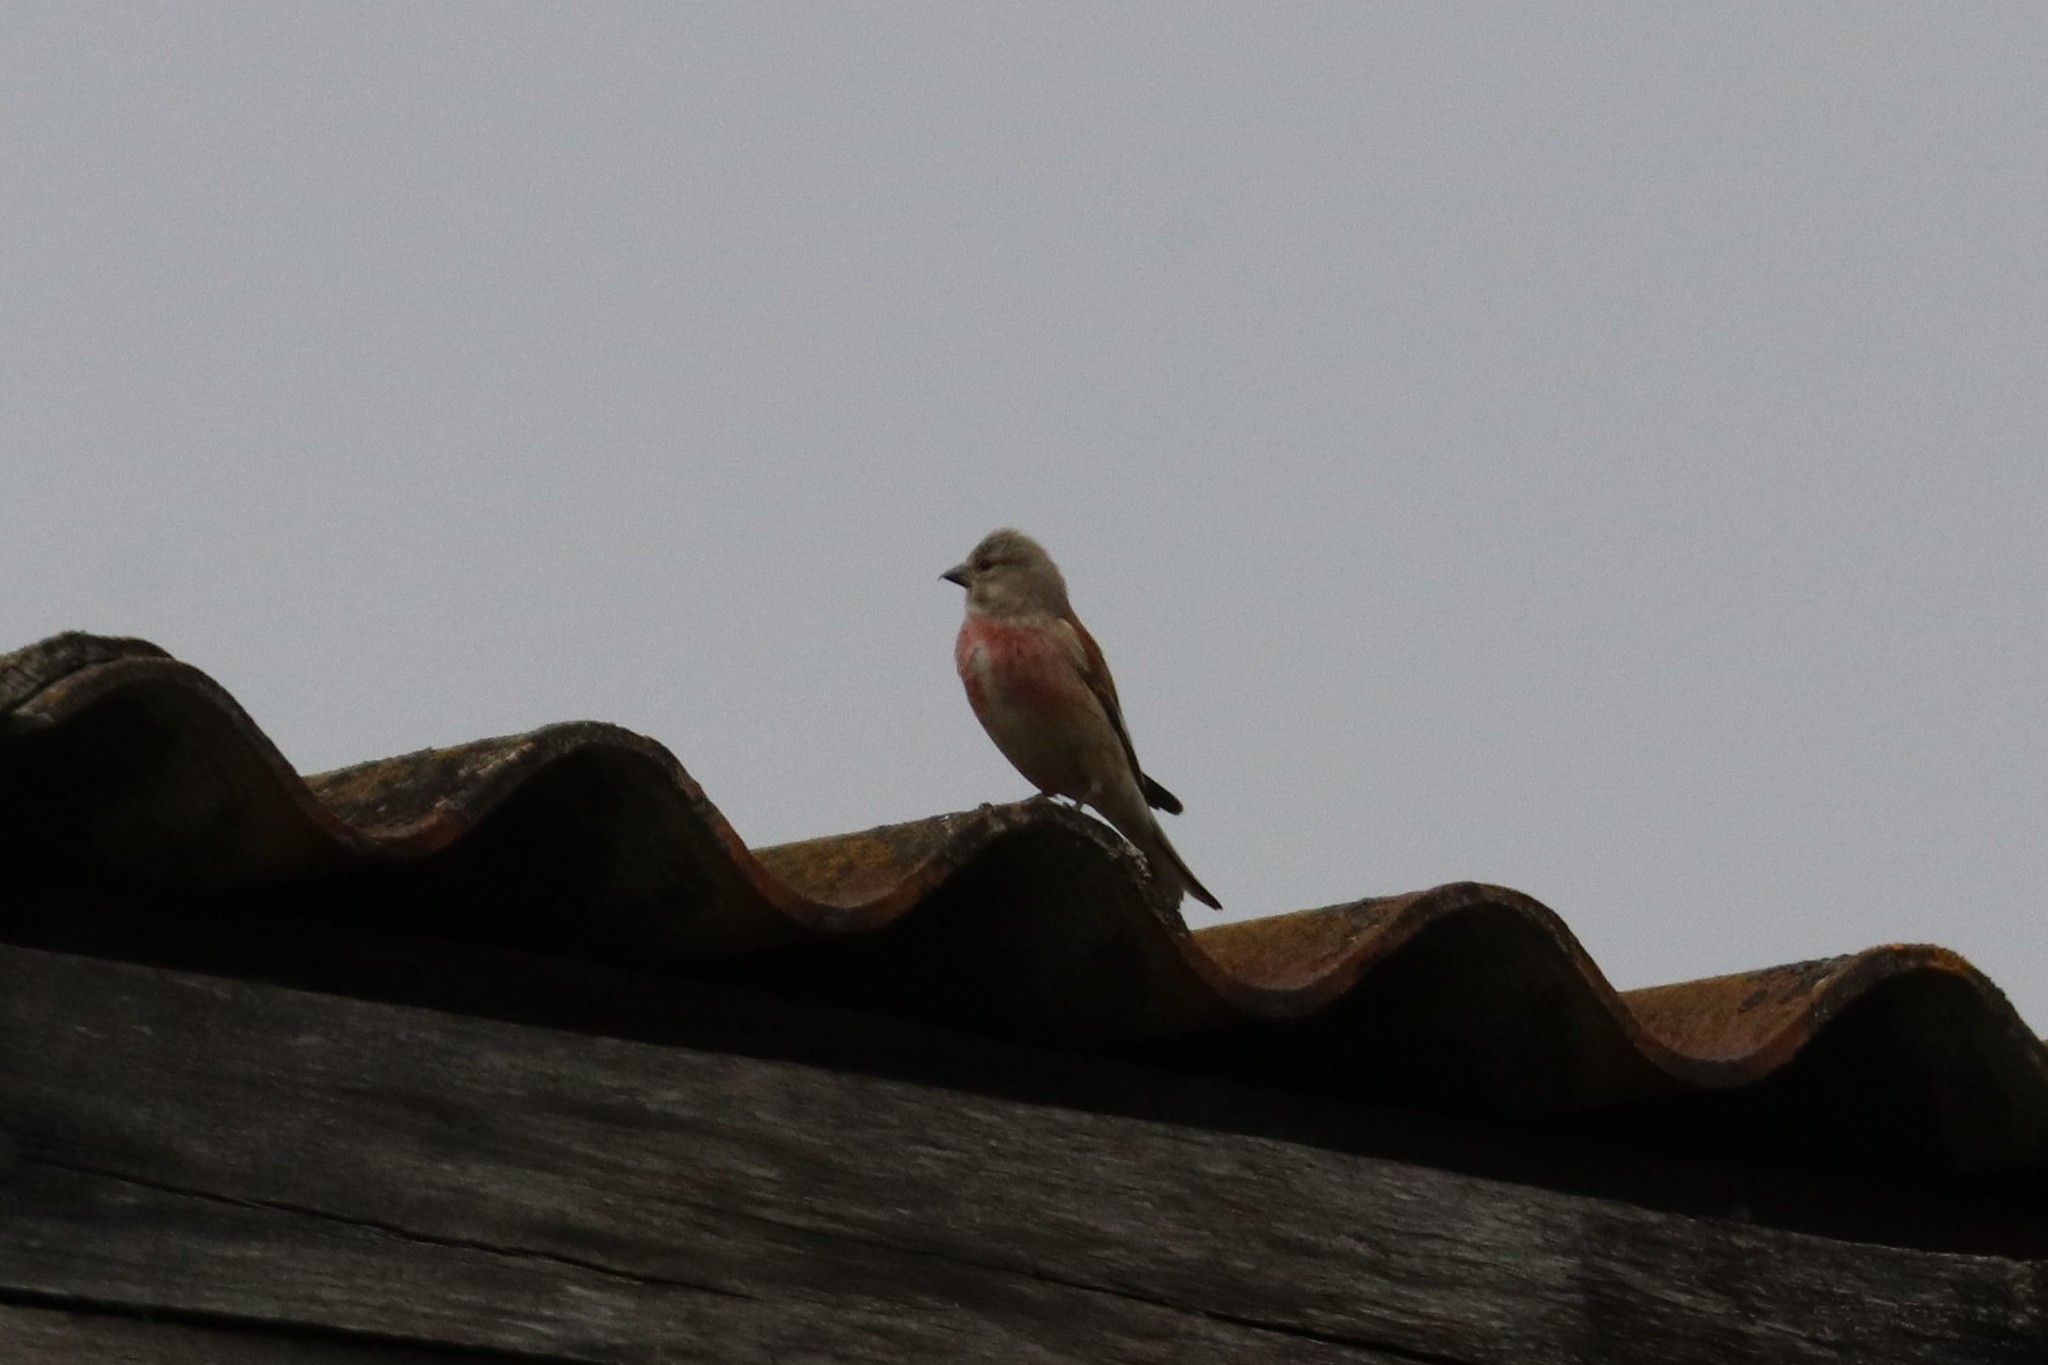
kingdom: Animalia
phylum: Chordata
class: Aves
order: Passeriformes
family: Fringillidae
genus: Linaria
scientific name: Linaria cannabina
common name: Common linnet
